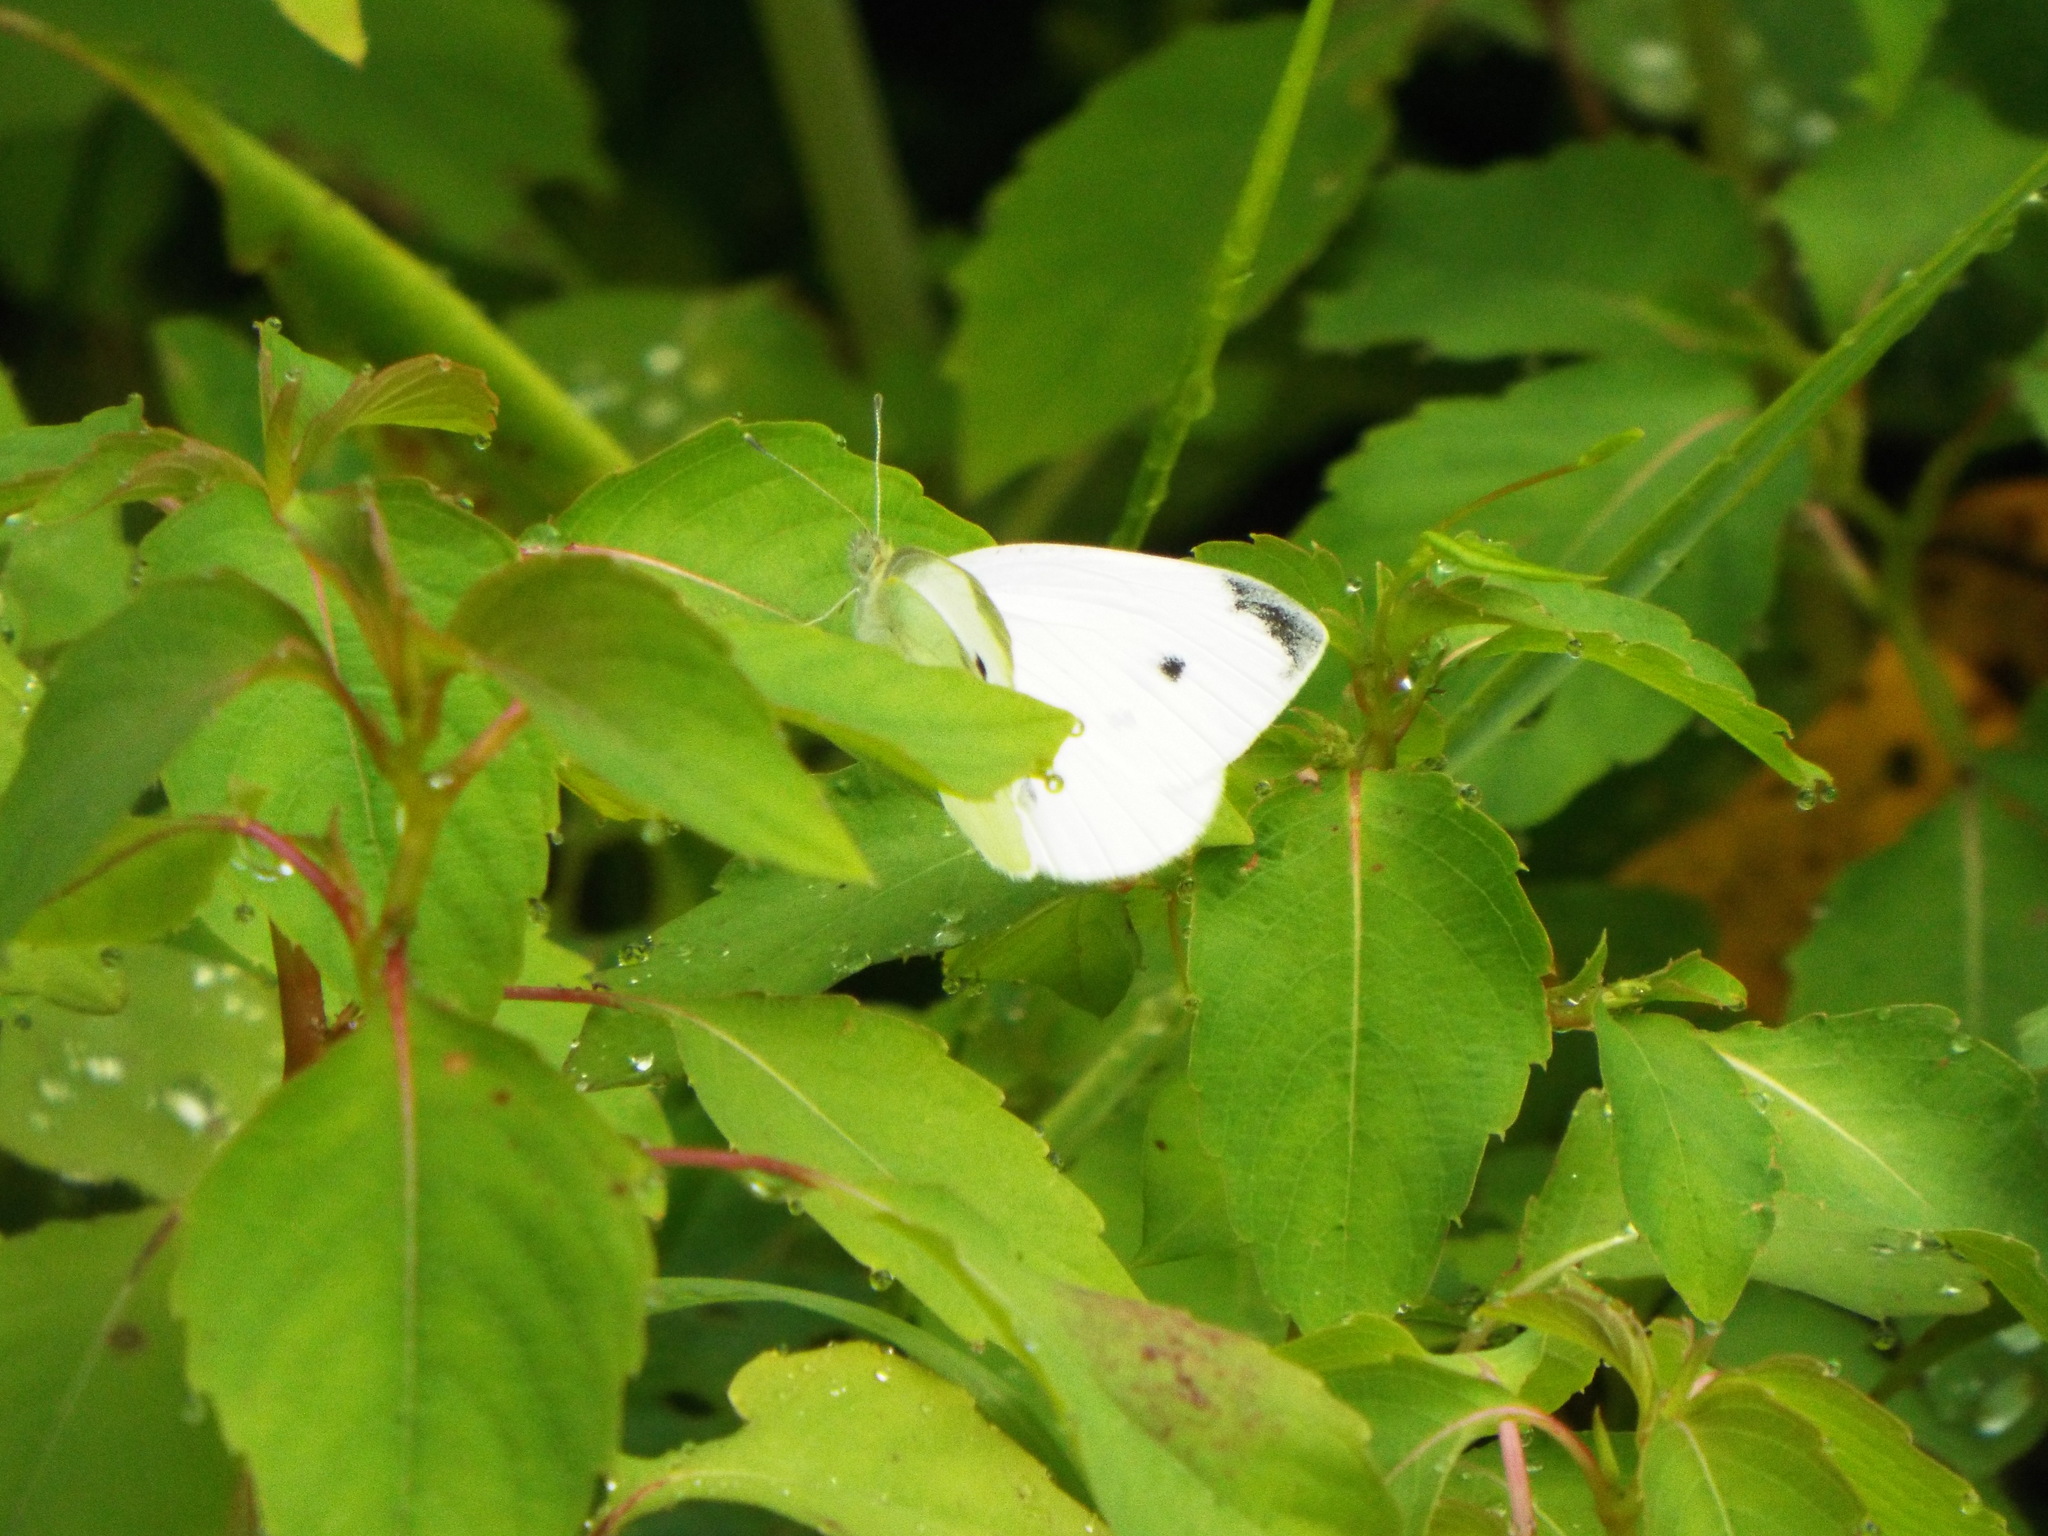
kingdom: Animalia
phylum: Arthropoda
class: Insecta
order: Lepidoptera
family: Pieridae
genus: Pieris
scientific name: Pieris rapae
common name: Small white
